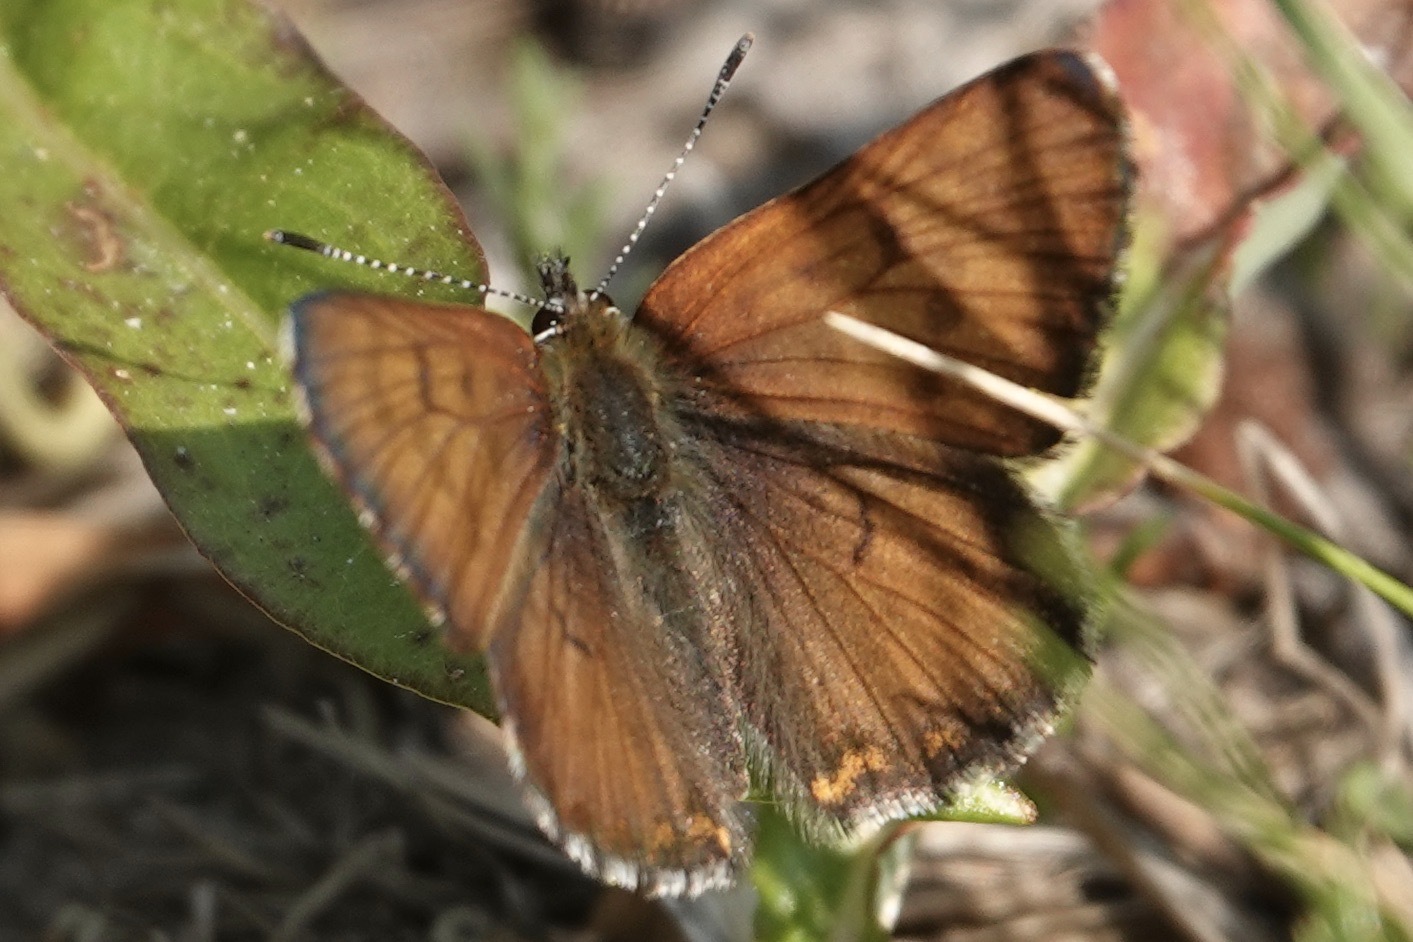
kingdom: Animalia
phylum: Arthropoda
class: Insecta
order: Lepidoptera
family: Lycaenidae
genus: Tharsalea
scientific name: Tharsalea mariposa
